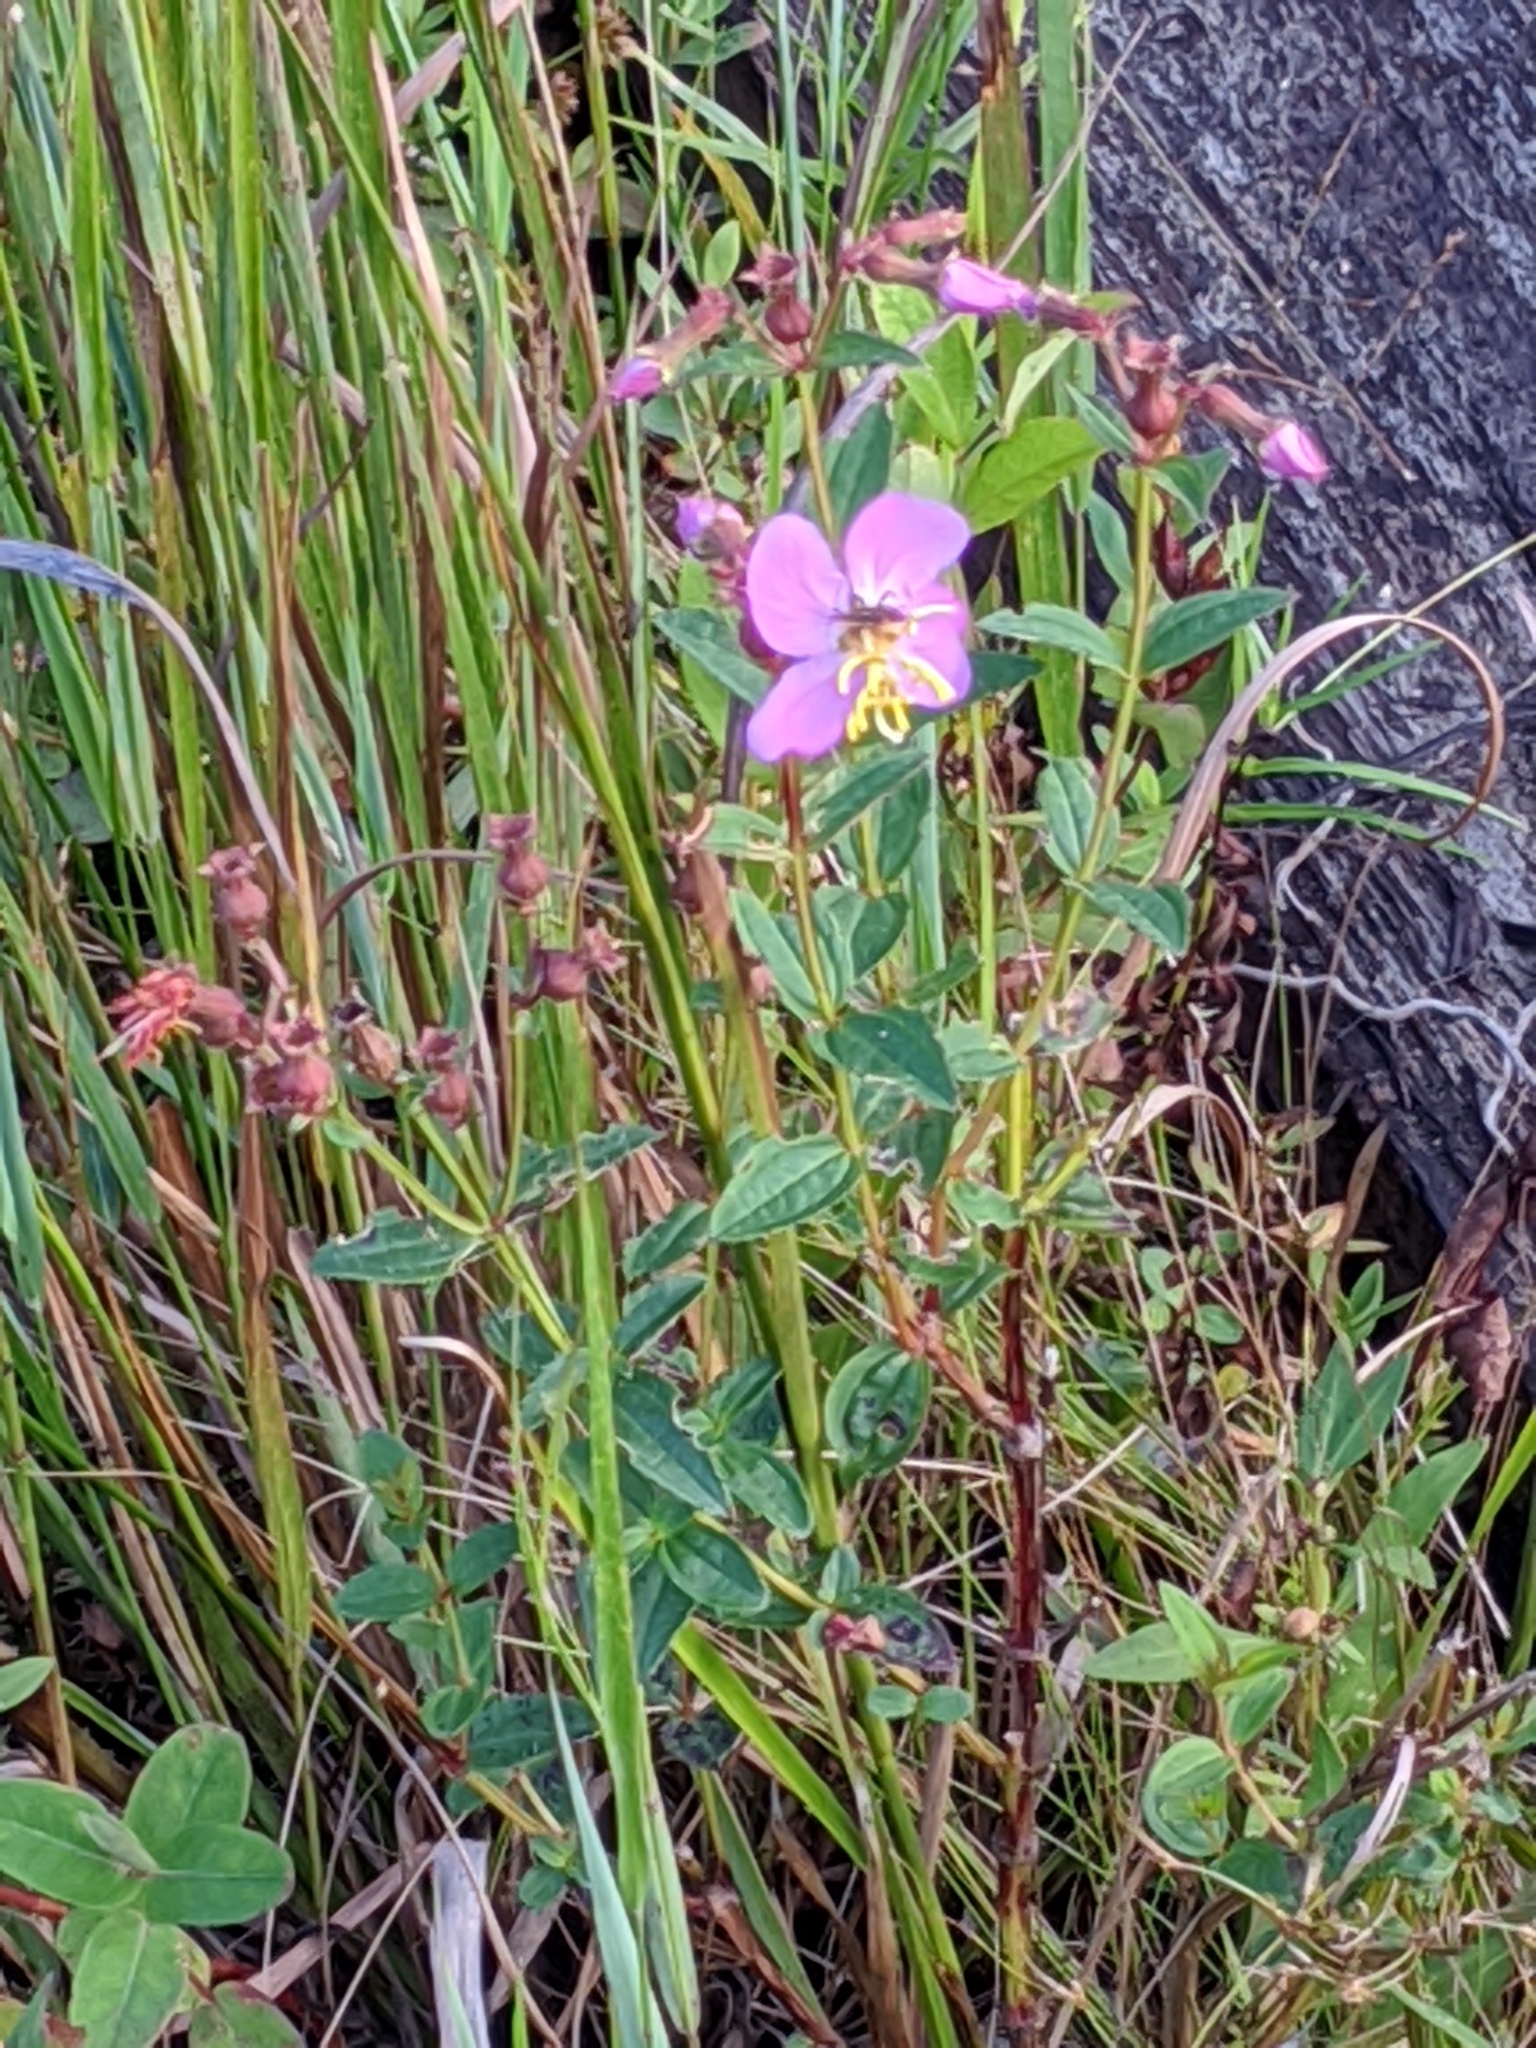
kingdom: Plantae
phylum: Tracheophyta
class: Magnoliopsida
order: Myrtales
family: Melastomataceae
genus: Rhexia
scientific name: Rhexia virginica
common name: Common meadow beauty
